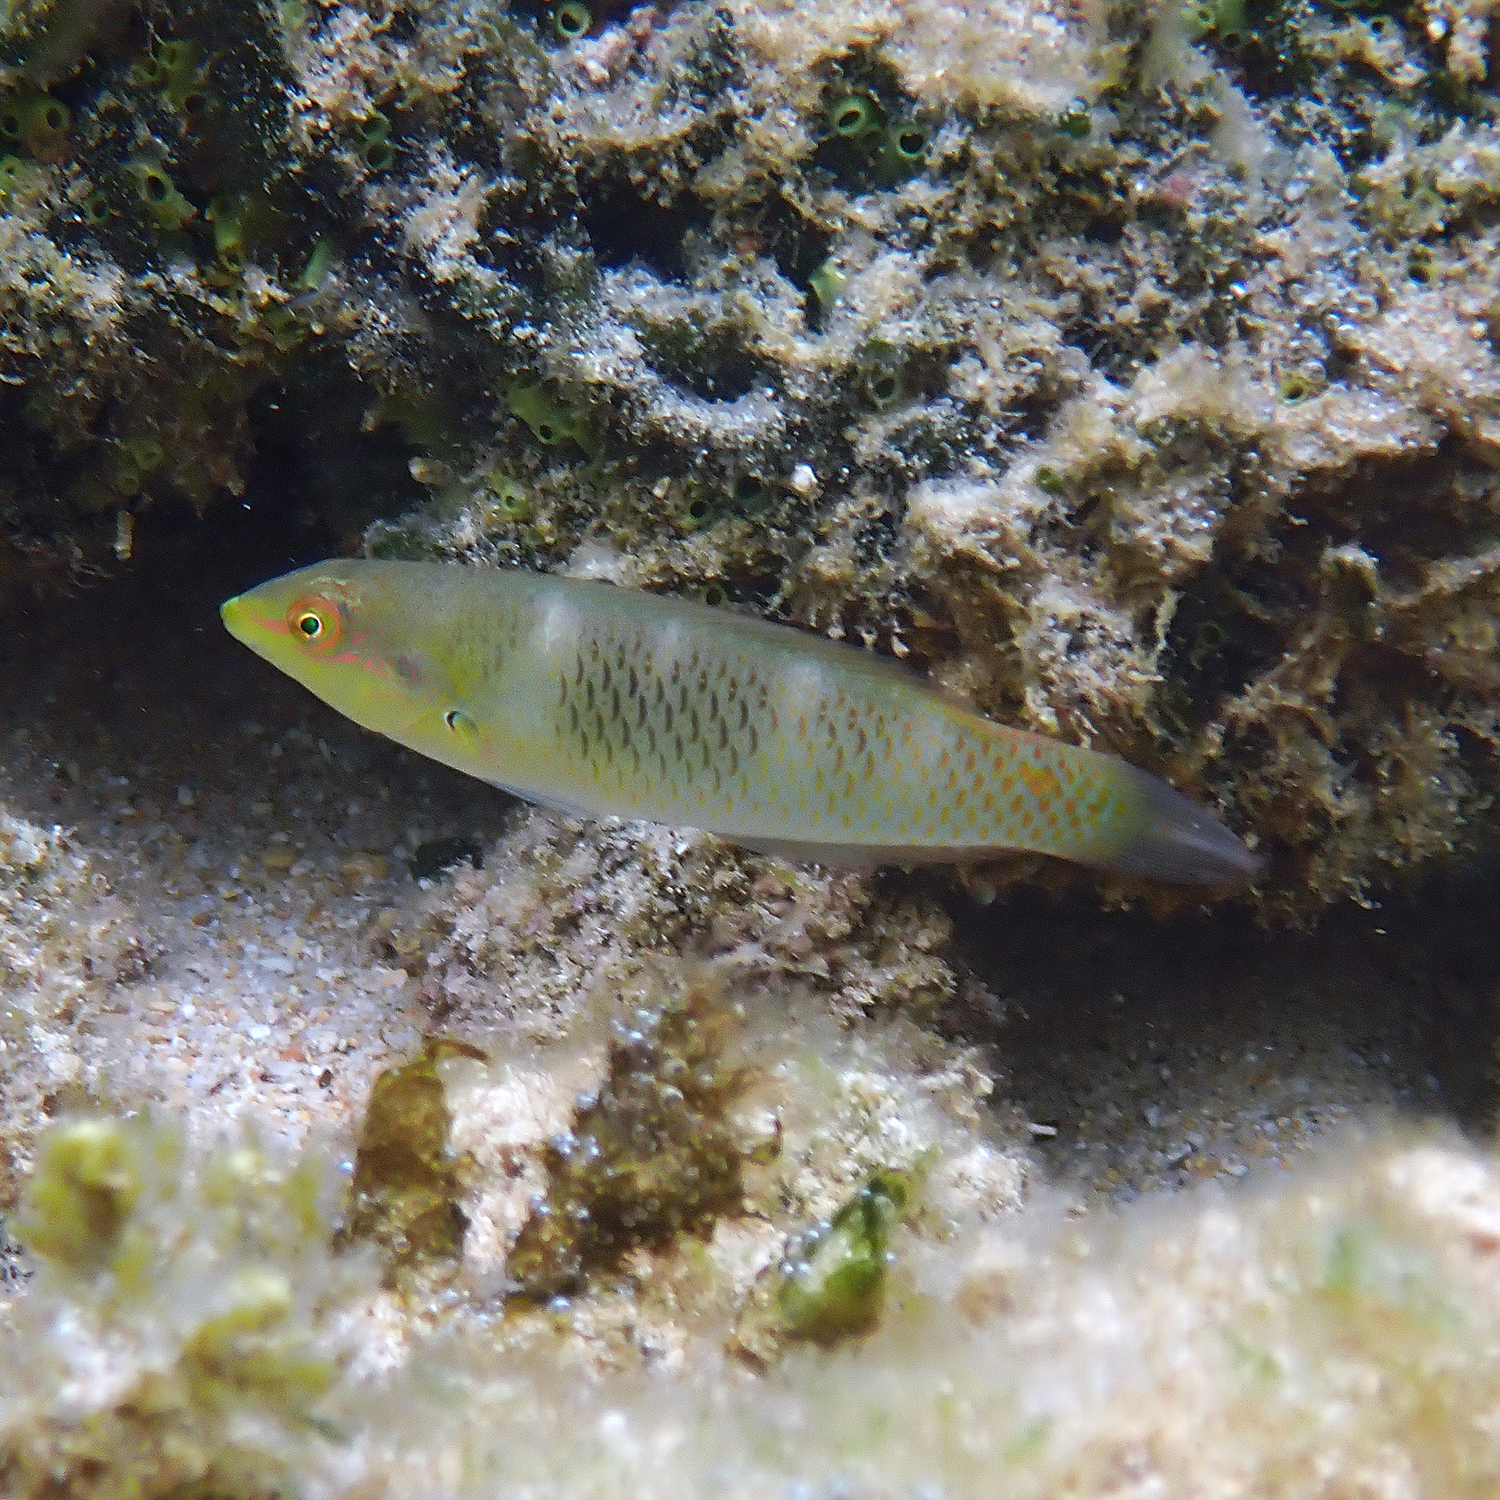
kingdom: Animalia
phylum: Chordata
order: Perciformes
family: Labridae
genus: Halichoeres
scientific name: Halichoeres trimaculatus
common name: Three-spot wrasse
